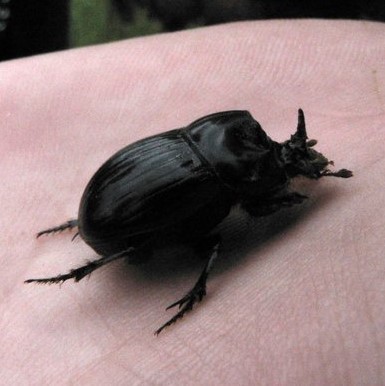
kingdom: Animalia
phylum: Arthropoda
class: Insecta
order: Coleoptera
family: Scarabaeidae
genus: Copris
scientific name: Copris lunaris
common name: Horned dung beetle
